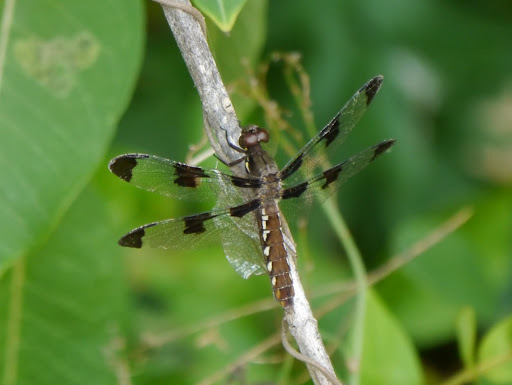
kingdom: Animalia
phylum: Arthropoda
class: Insecta
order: Odonata
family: Libellulidae
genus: Plathemis
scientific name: Plathemis lydia
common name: Common whitetail
